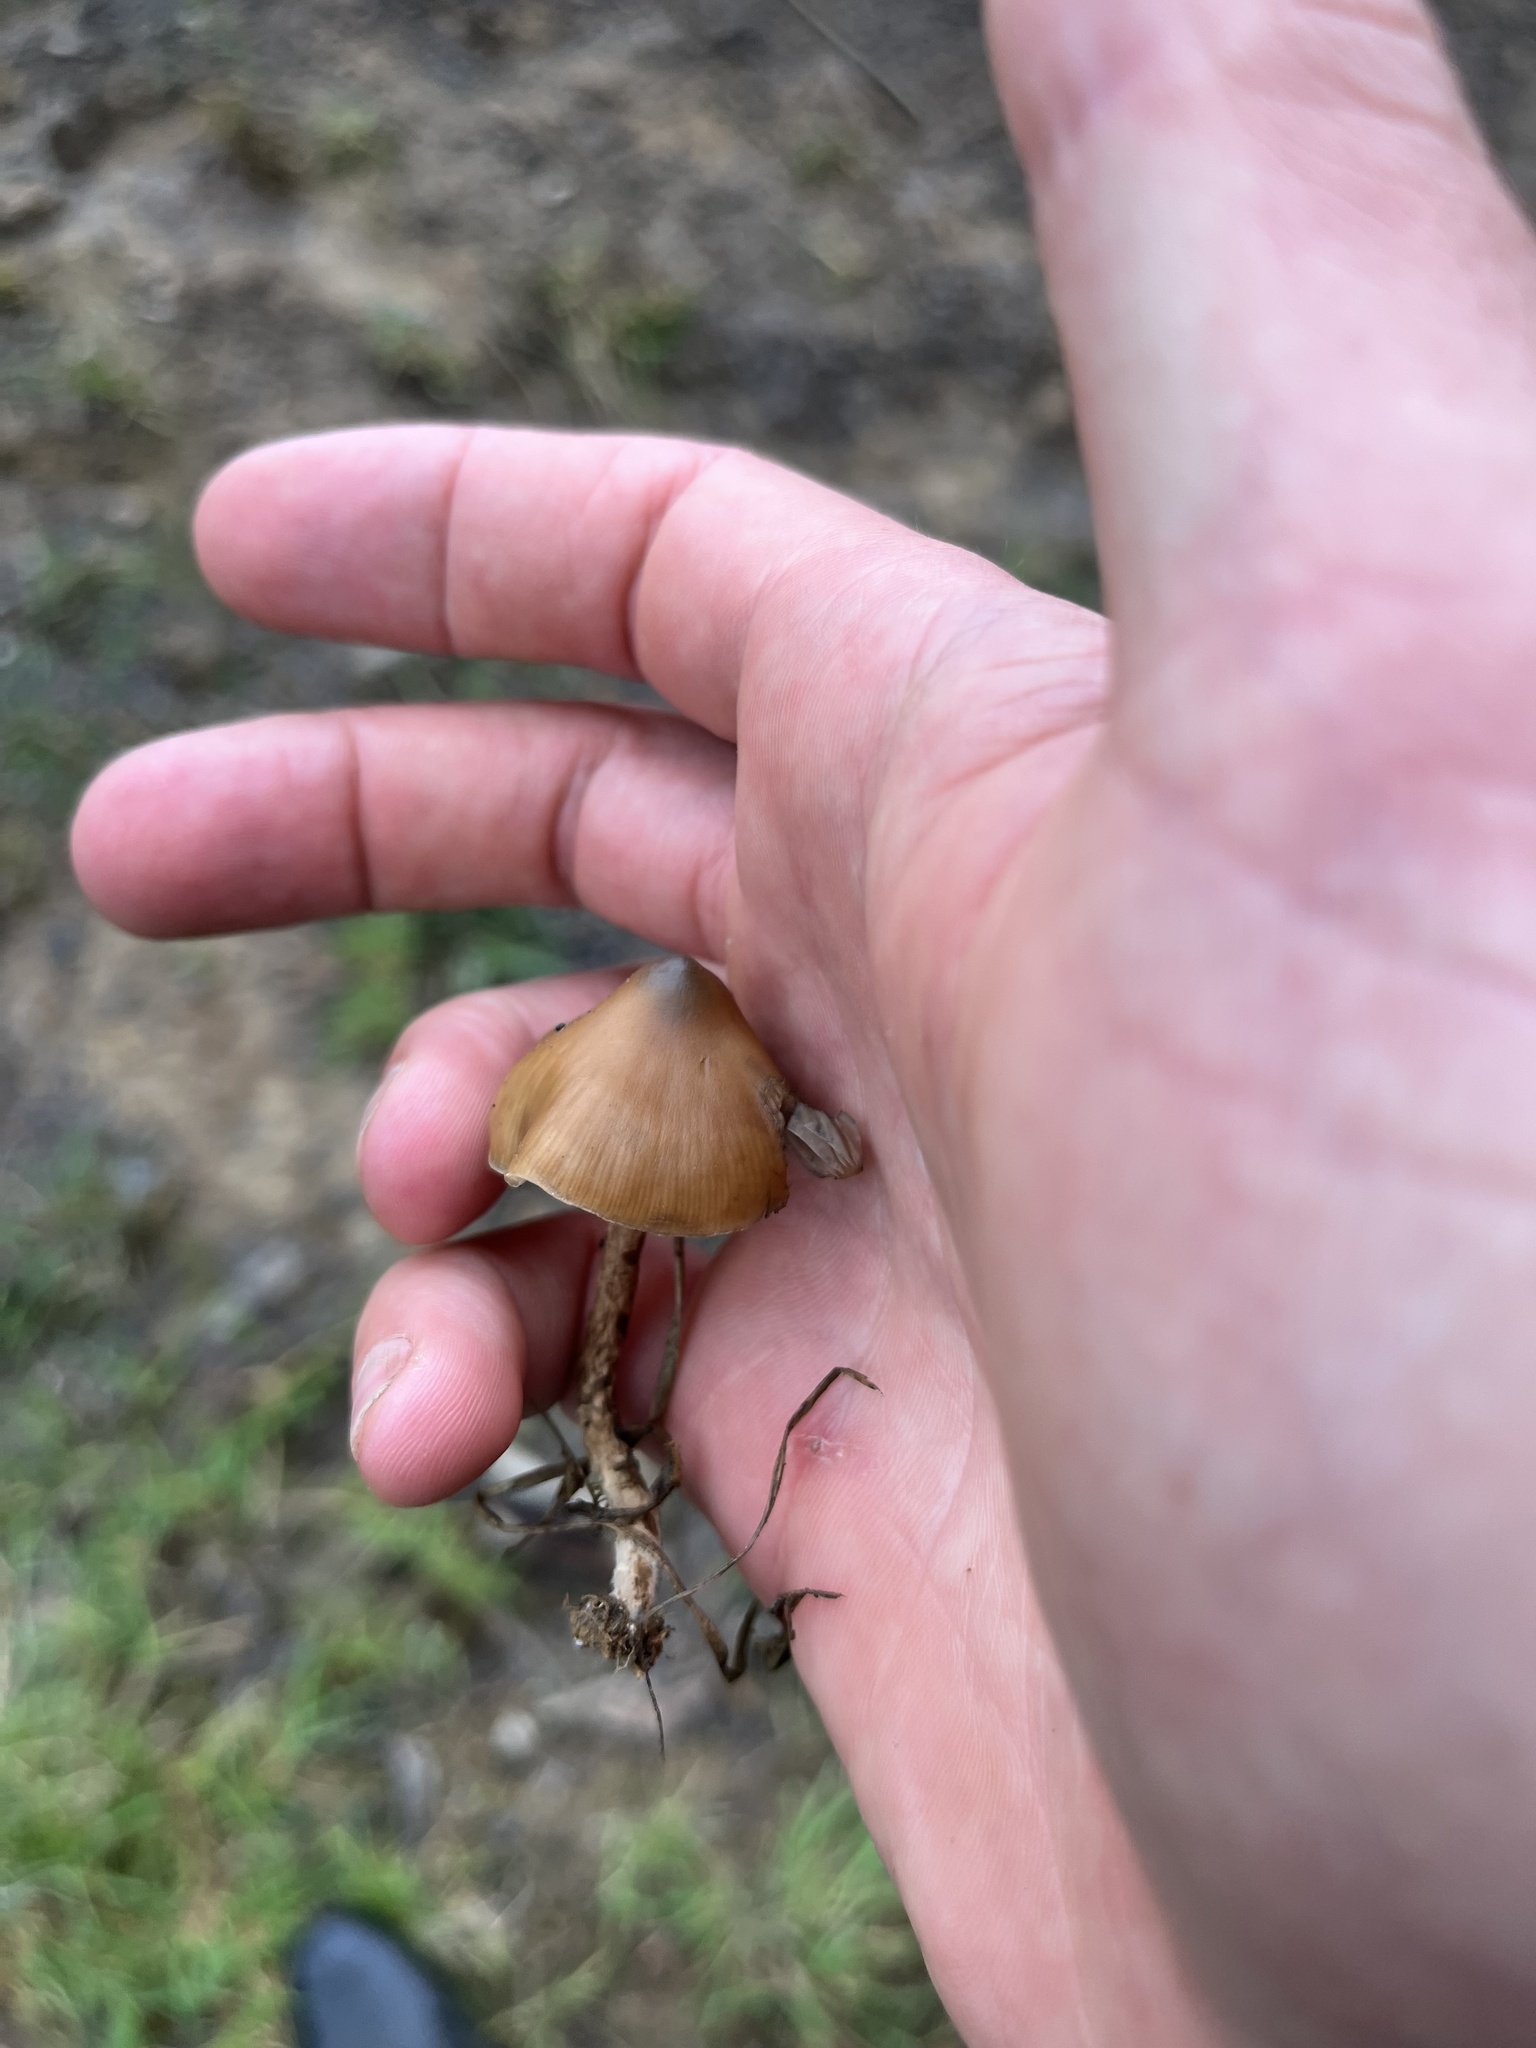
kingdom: Fungi
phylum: Basidiomycota
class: Agaricomycetes
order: Agaricales
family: Hymenogastraceae
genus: Psilocybe
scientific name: Psilocybe zapotecorum
